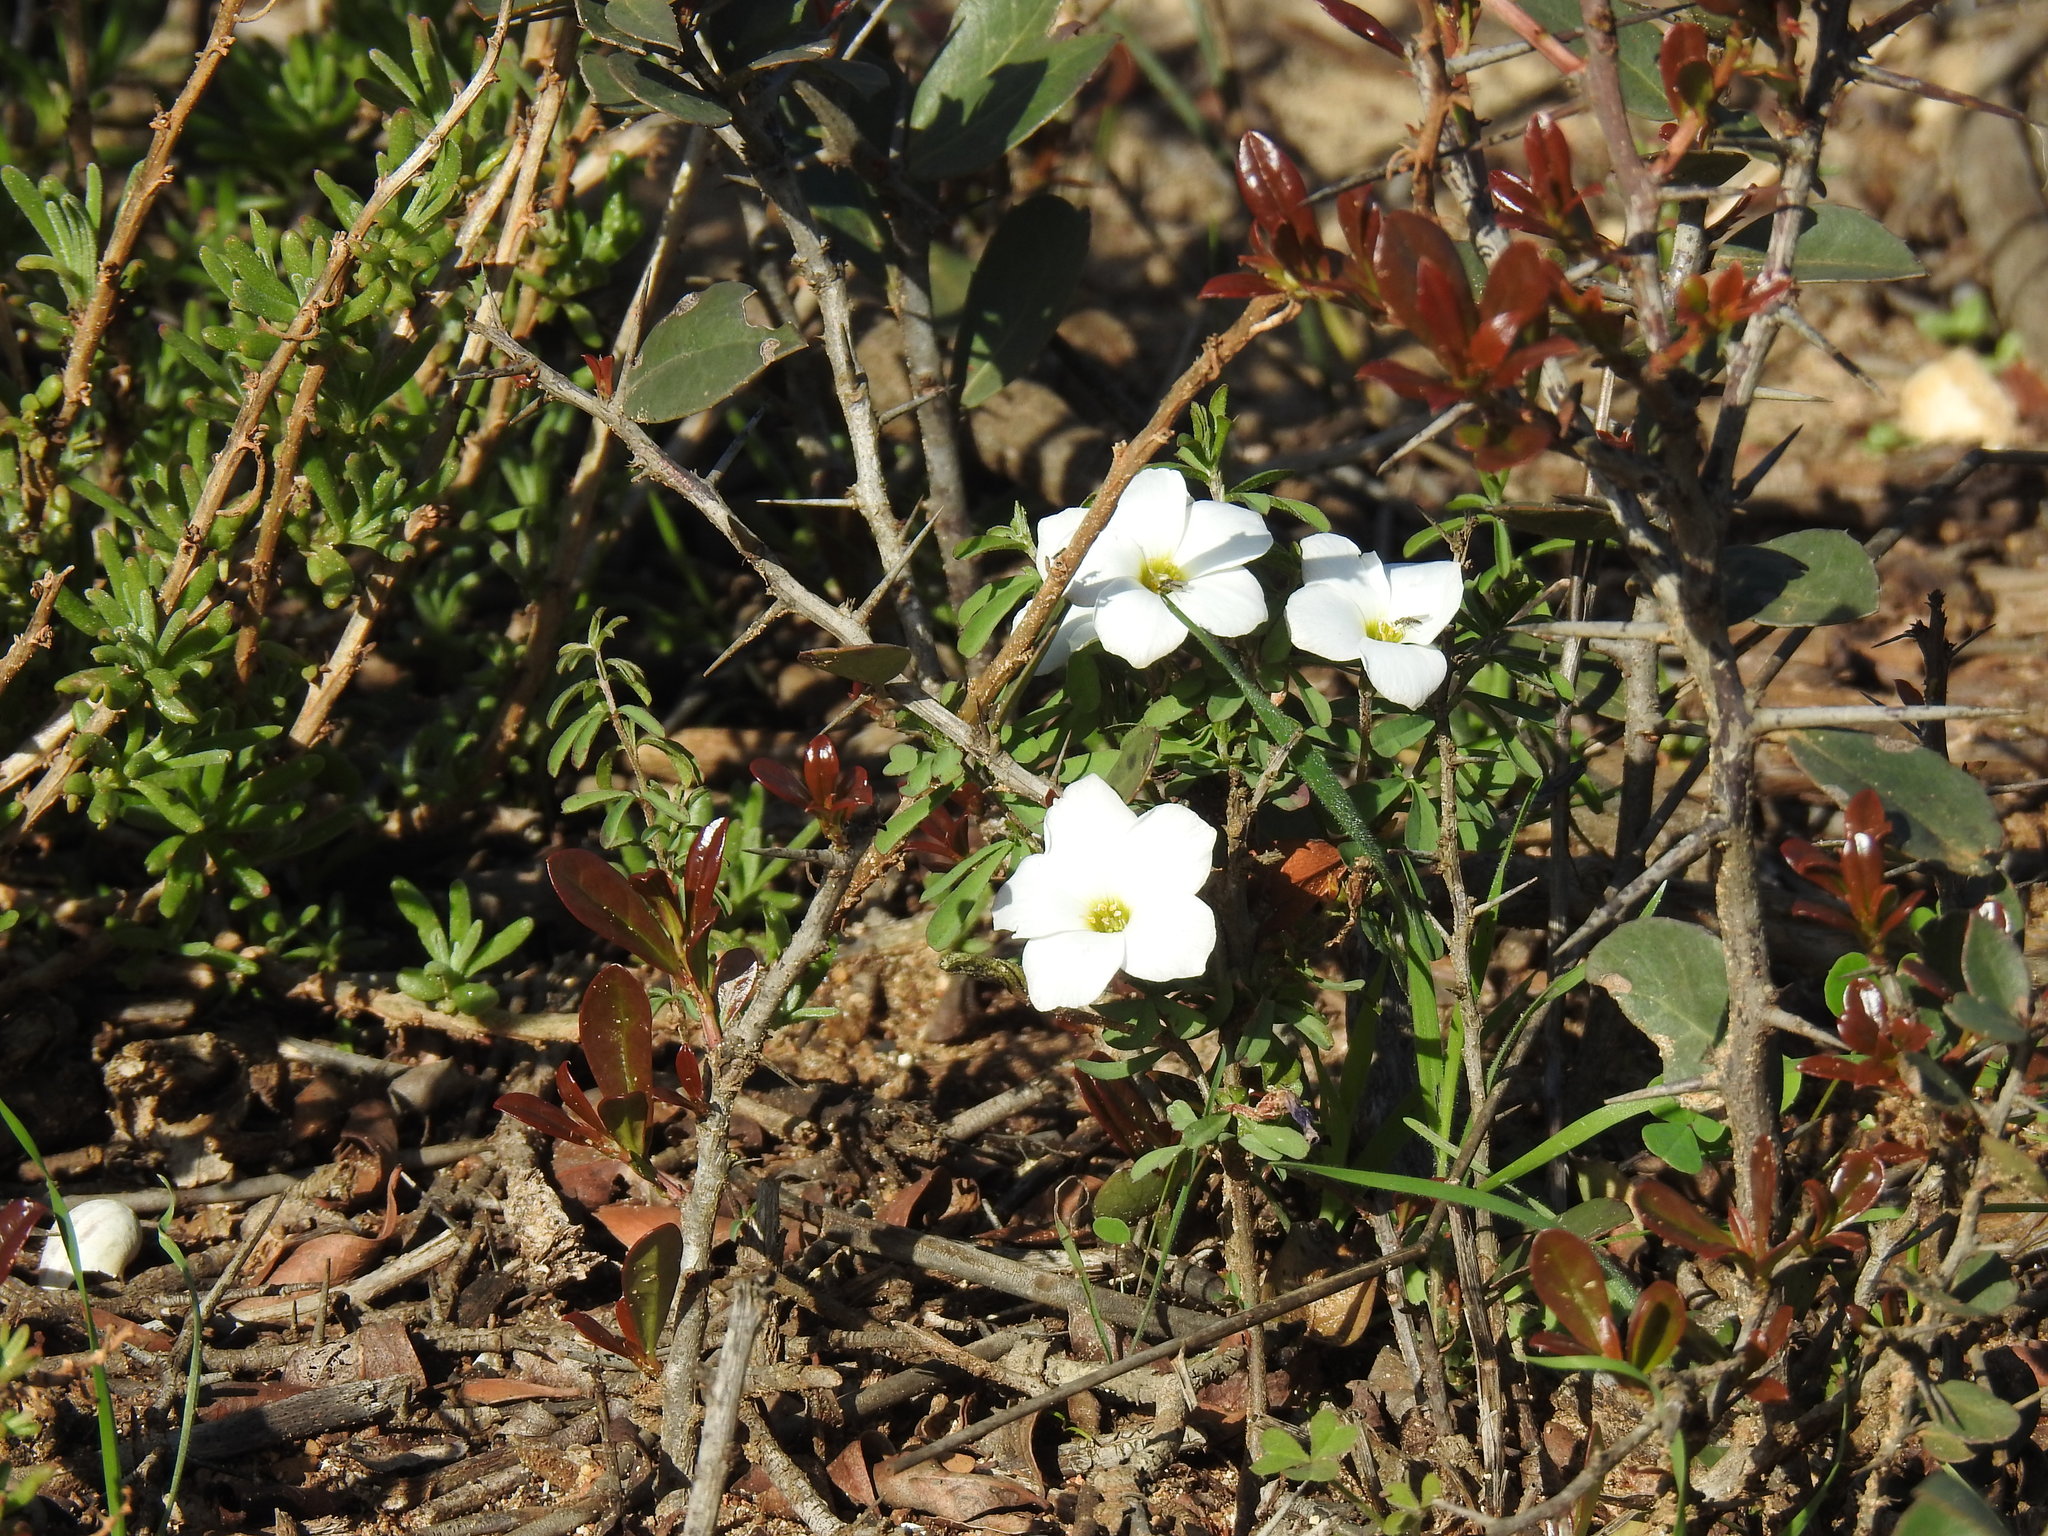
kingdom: Plantae
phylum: Tracheophyta
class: Magnoliopsida
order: Oxalidales
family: Oxalidaceae
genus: Oxalis
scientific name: Oxalis hirta
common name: Tropical woodsorrel
